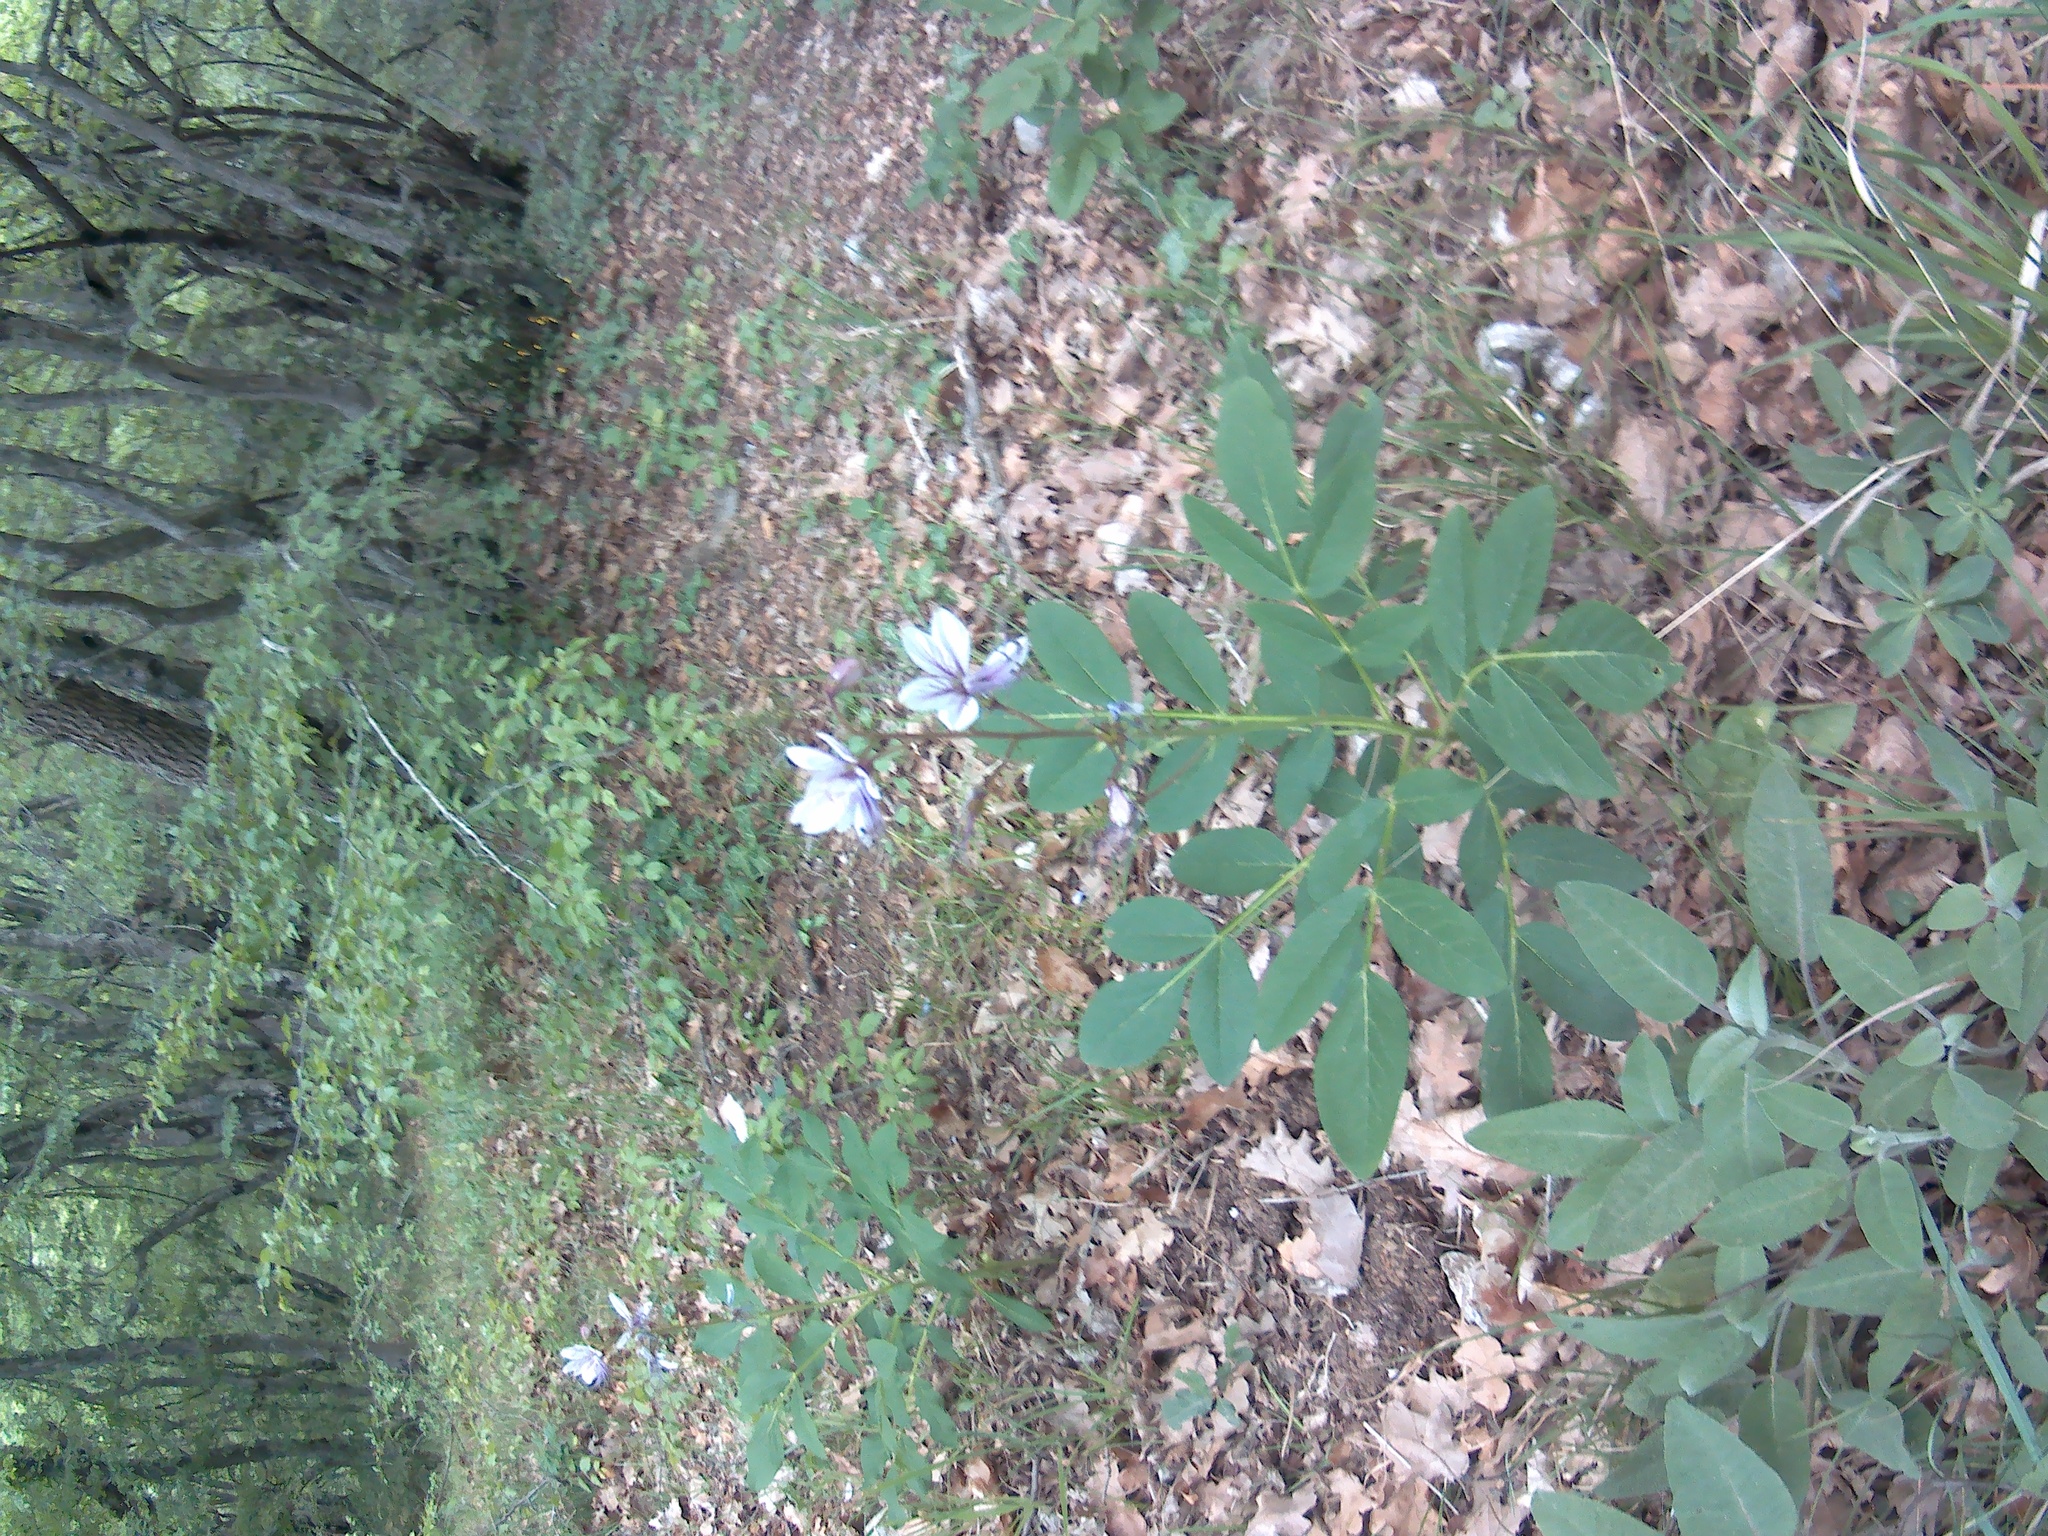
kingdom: Plantae
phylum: Tracheophyta
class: Magnoliopsida
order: Sapindales
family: Rutaceae
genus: Dictamnus
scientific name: Dictamnus albus
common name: Gasplant
